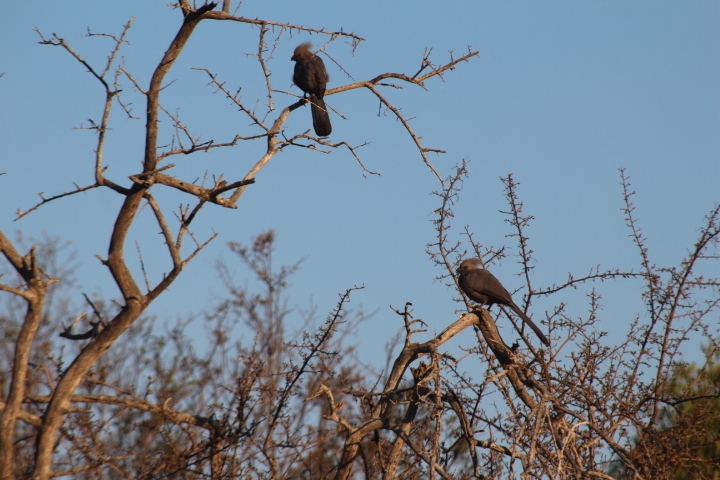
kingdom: Animalia
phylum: Chordata
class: Aves
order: Musophagiformes
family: Musophagidae
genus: Corythaixoides
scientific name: Corythaixoides concolor
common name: Grey go-away-bird
